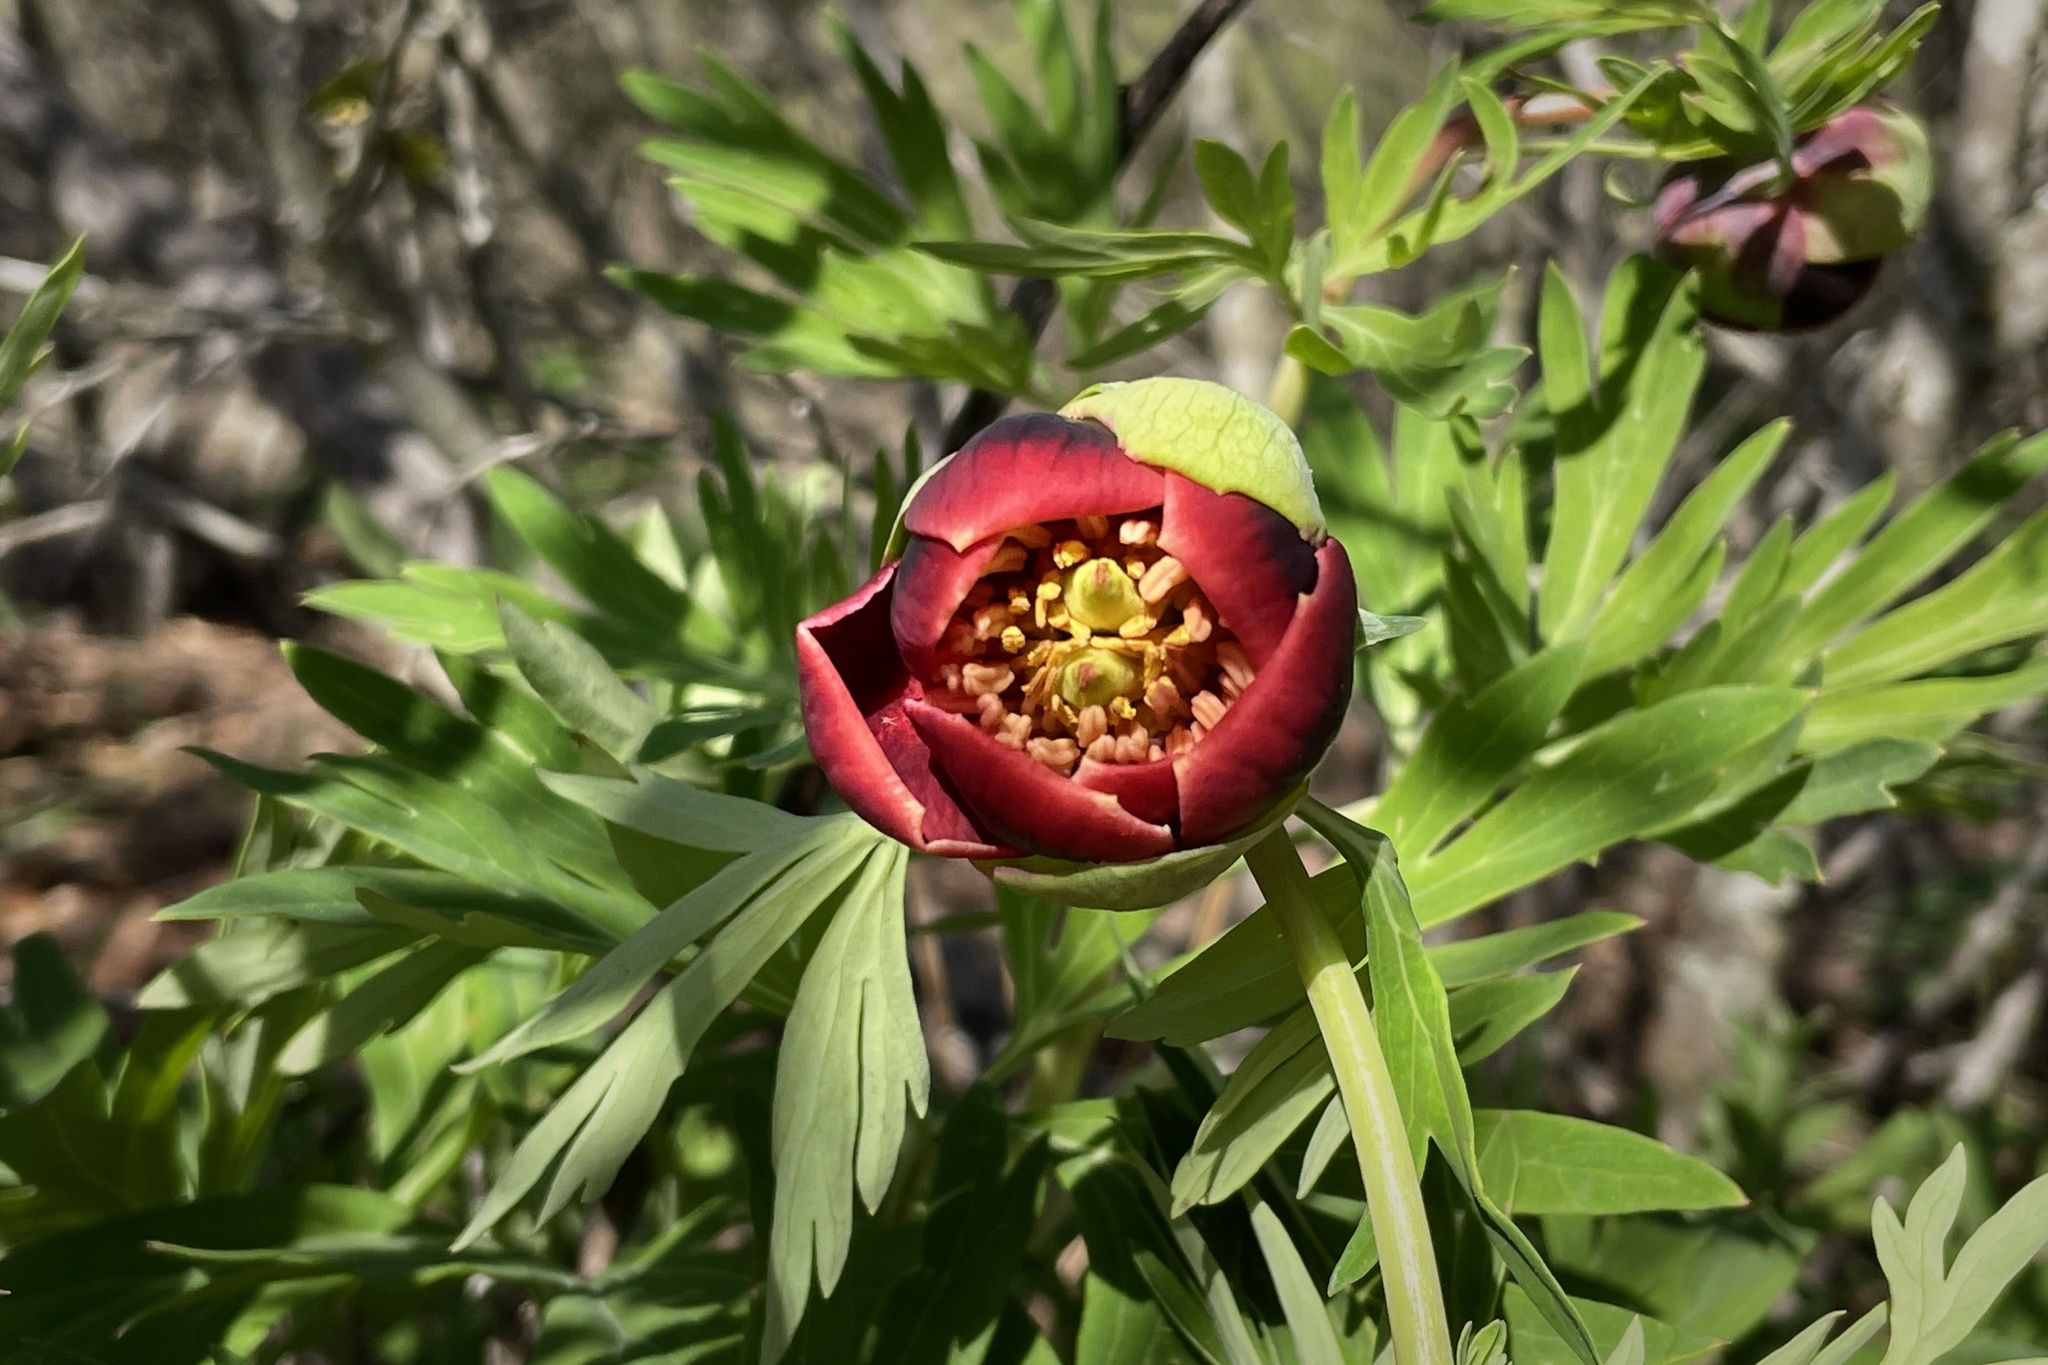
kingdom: Plantae
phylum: Tracheophyta
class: Magnoliopsida
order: Saxifragales
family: Paeoniaceae
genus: Paeonia
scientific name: Paeonia californica
